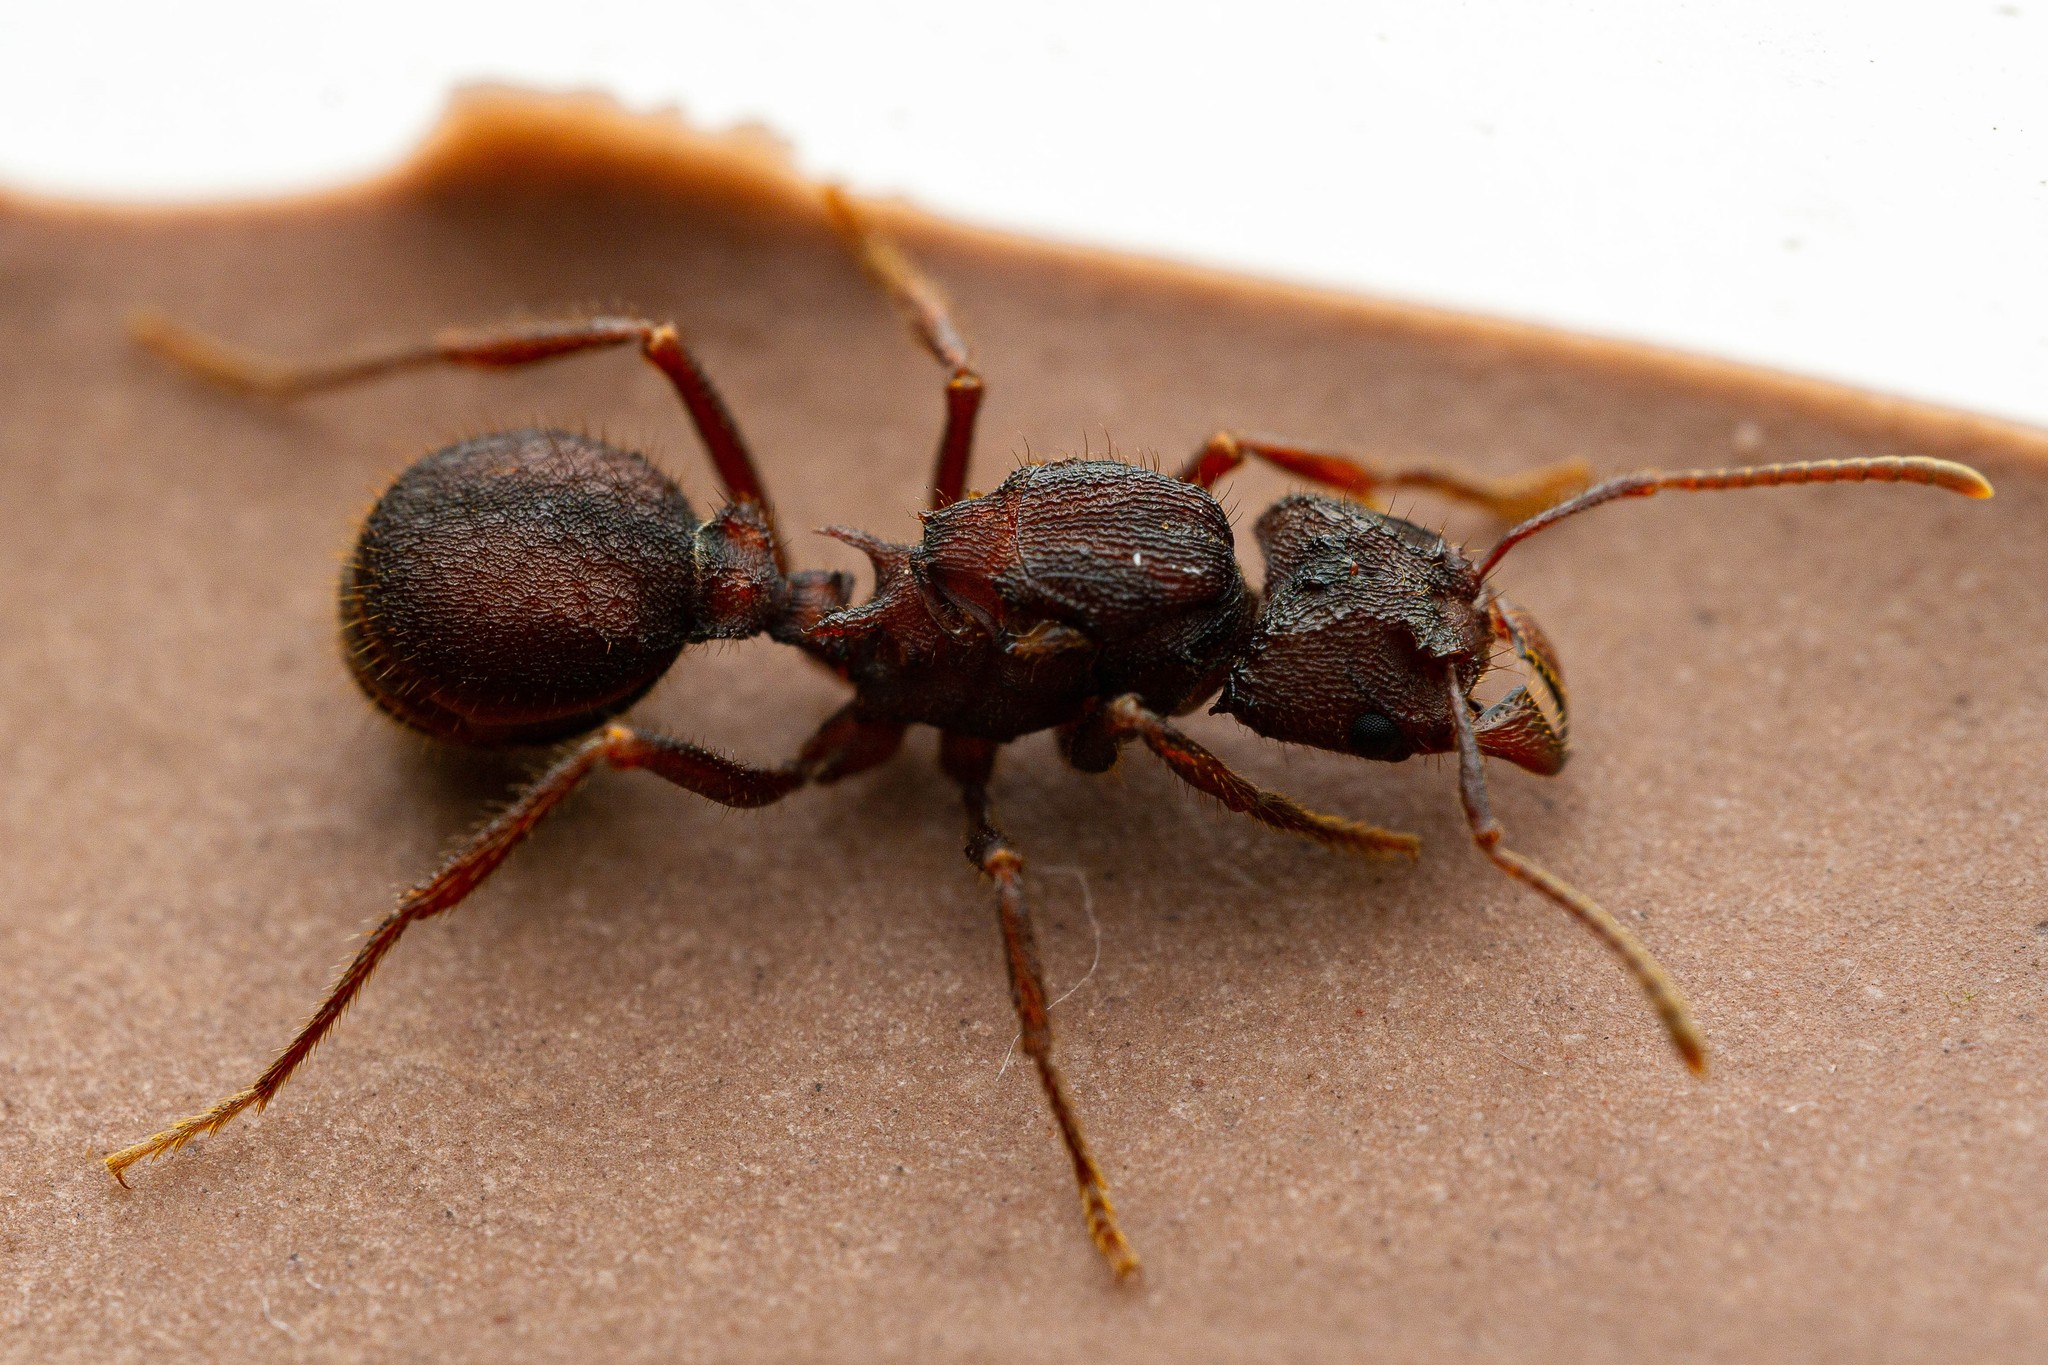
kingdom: Animalia
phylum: Arthropoda
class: Insecta
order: Hymenoptera
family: Formicidae
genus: Acromyrmex
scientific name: Acromyrmex versicolor
